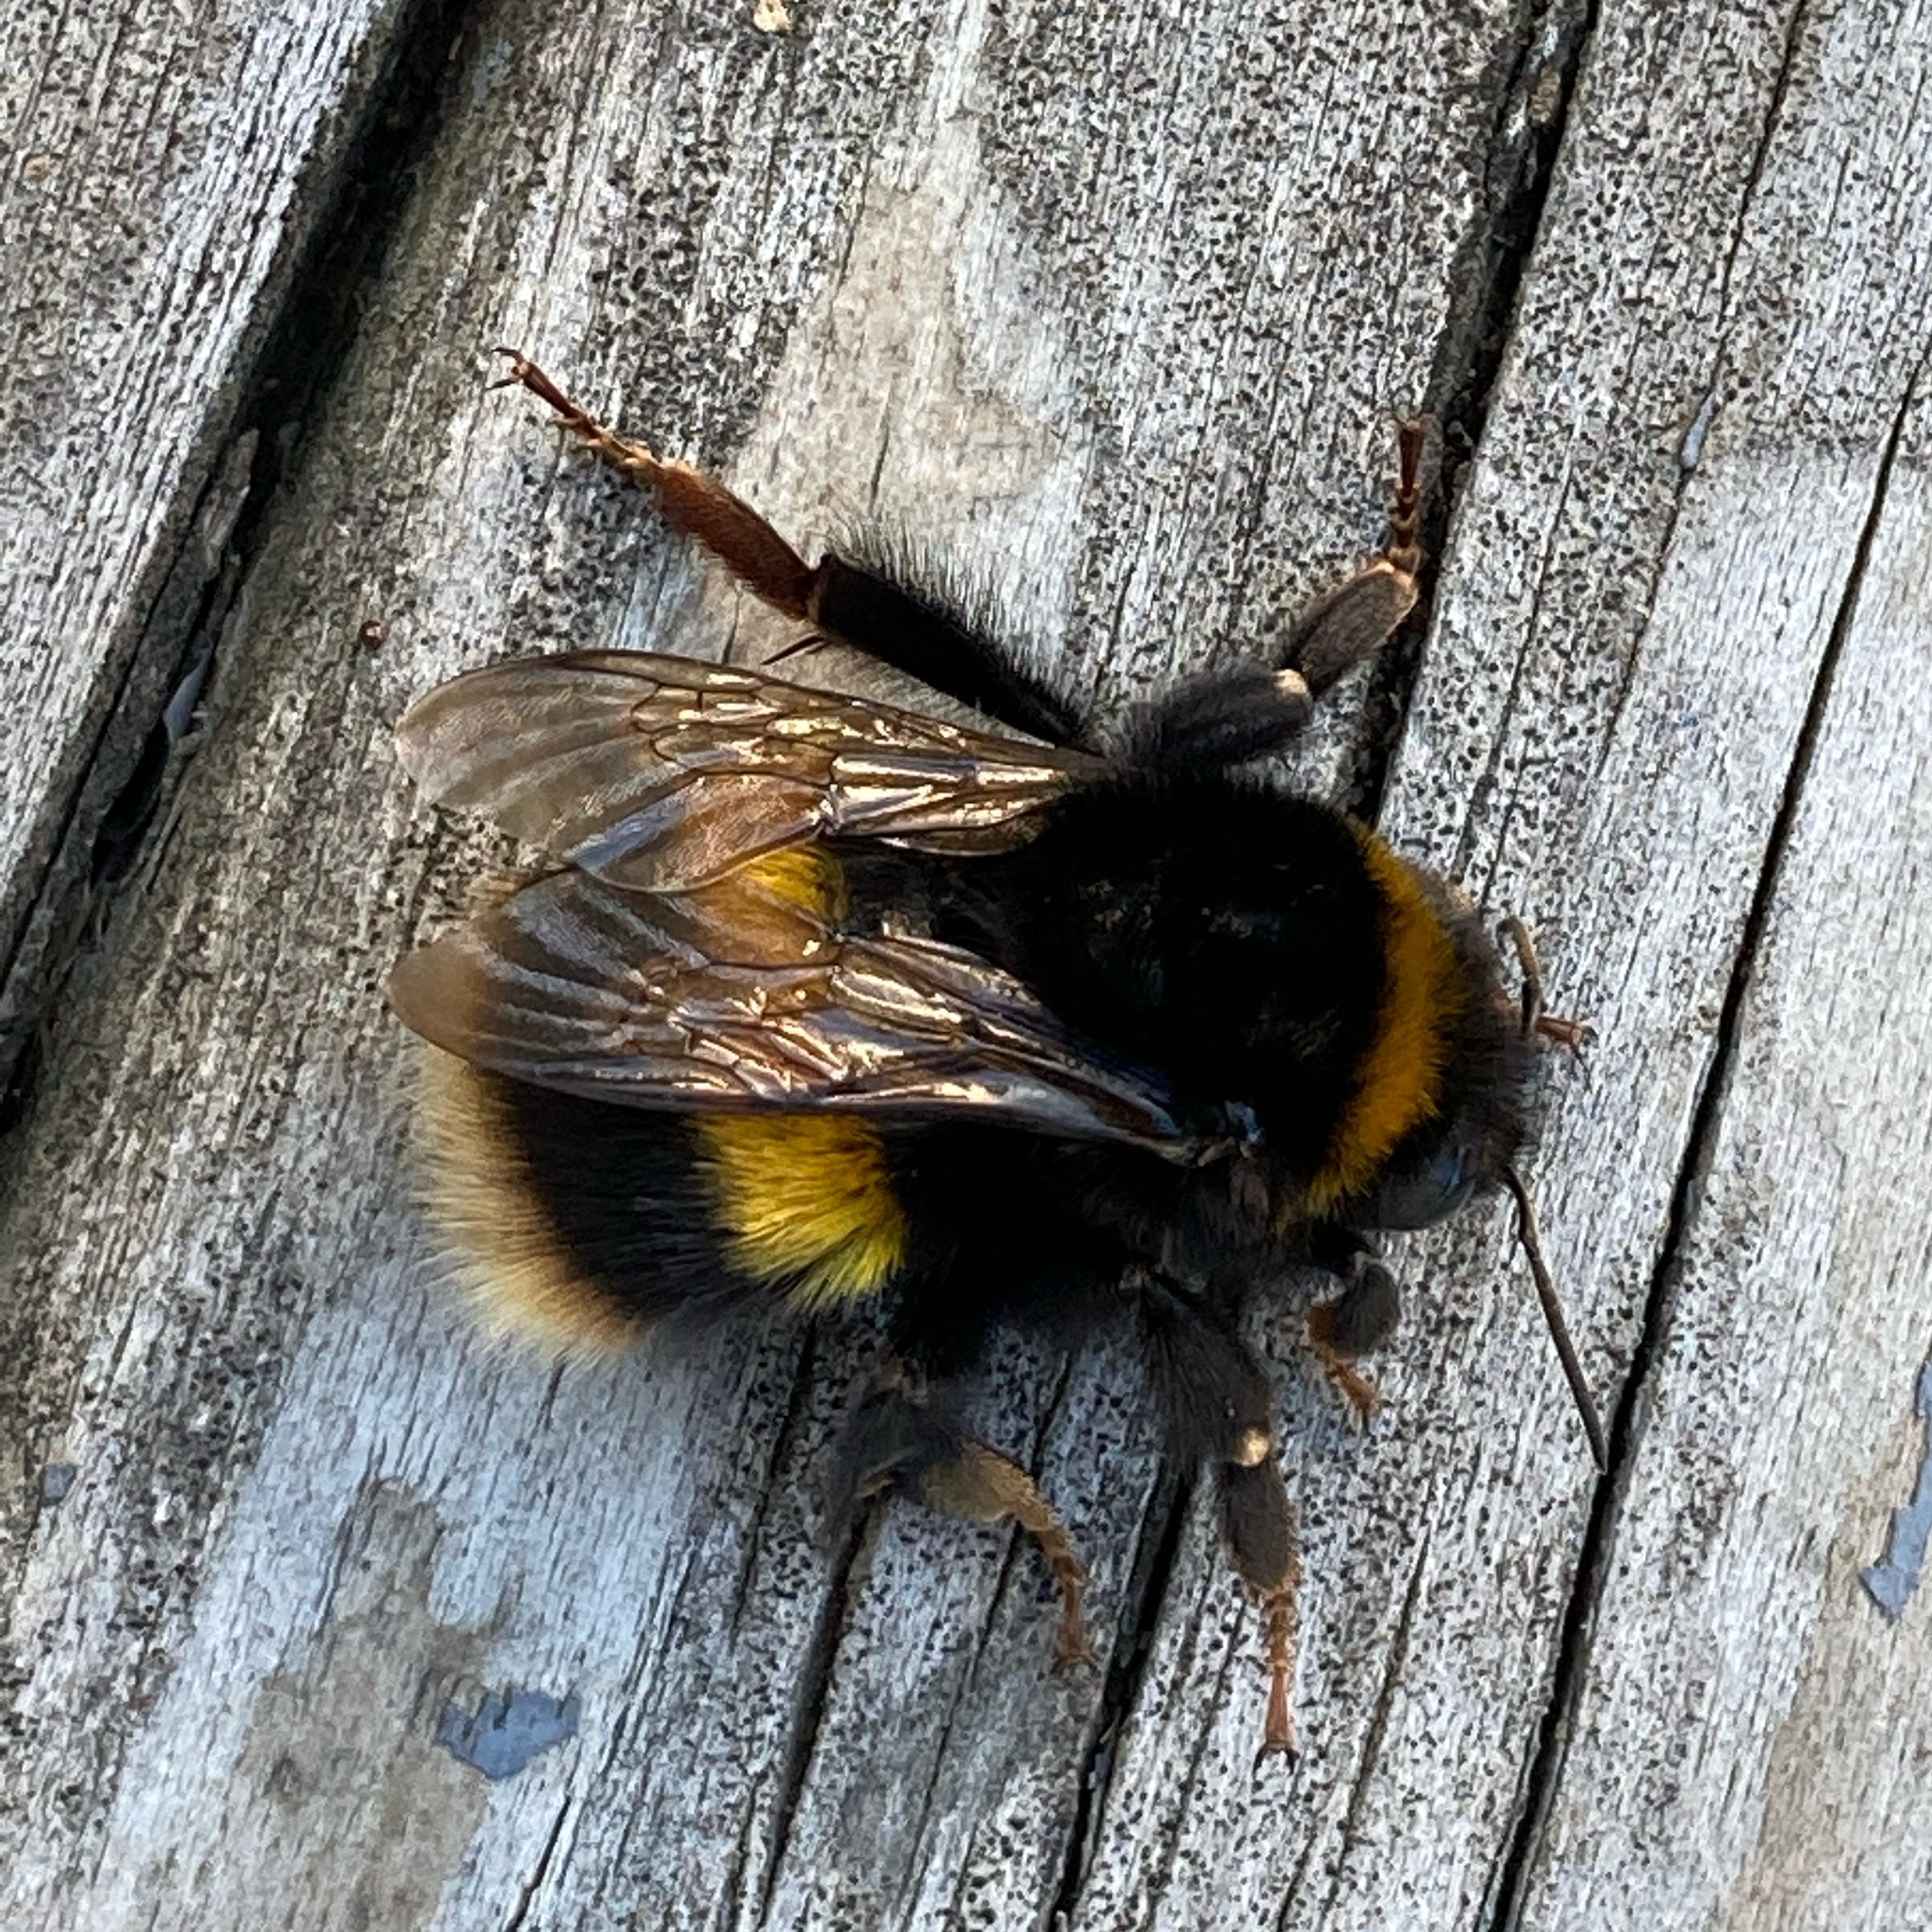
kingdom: Animalia
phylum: Arthropoda
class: Insecta
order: Hymenoptera
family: Apidae
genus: Bombus
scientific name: Bombus terrestris
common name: Buff-tailed bumblebee
